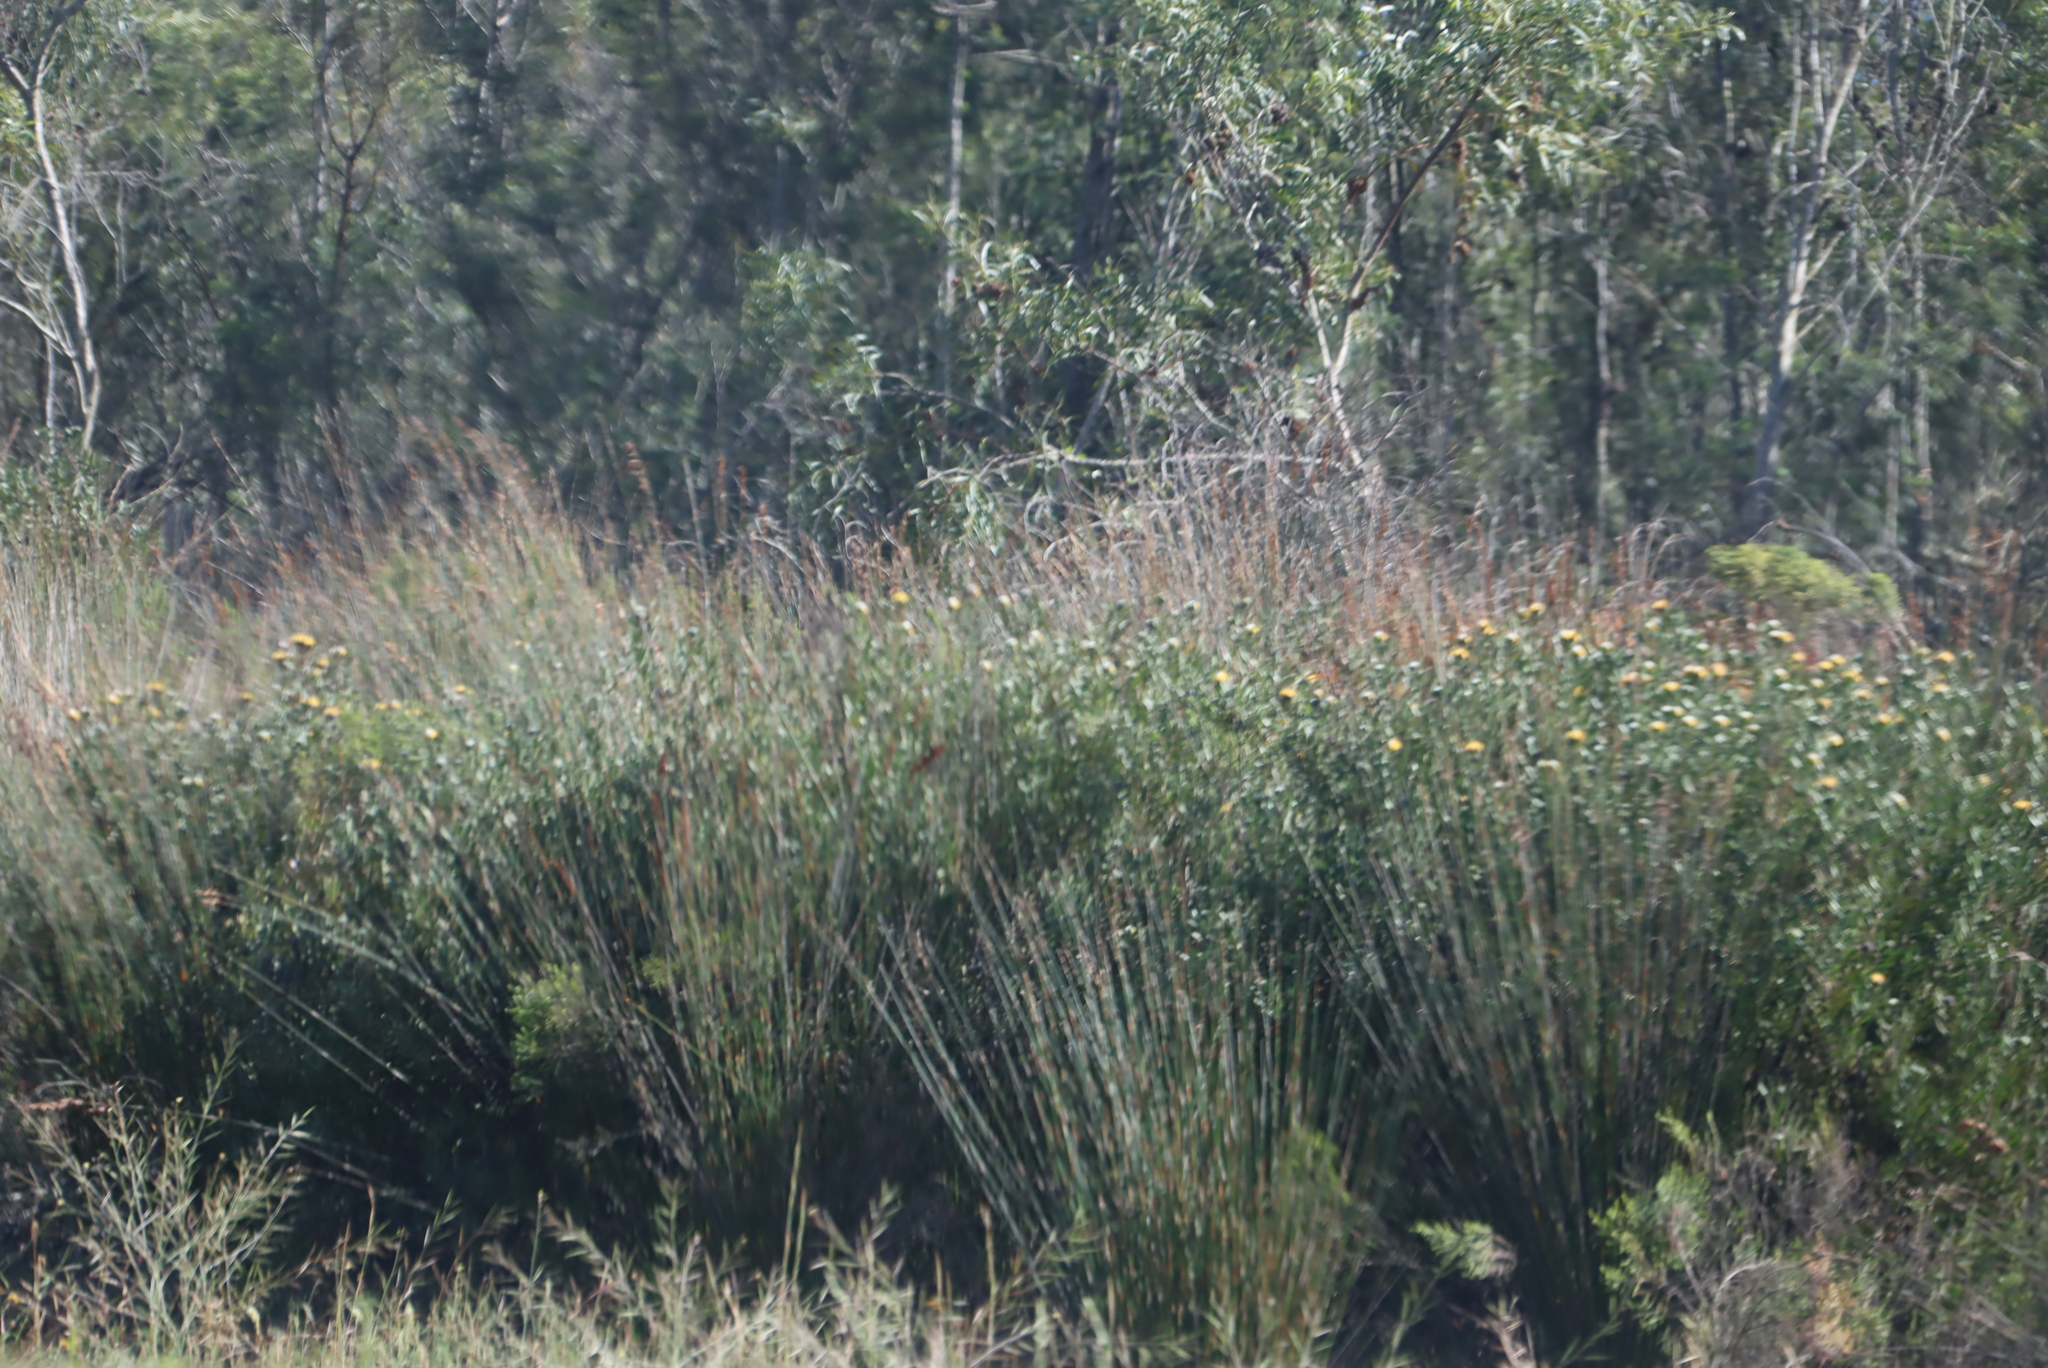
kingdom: Plantae
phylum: Tracheophyta
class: Magnoliopsida
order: Proteales
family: Proteaceae
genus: Leucospermum
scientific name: Leucospermum muirii
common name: Albertinia pincushion
